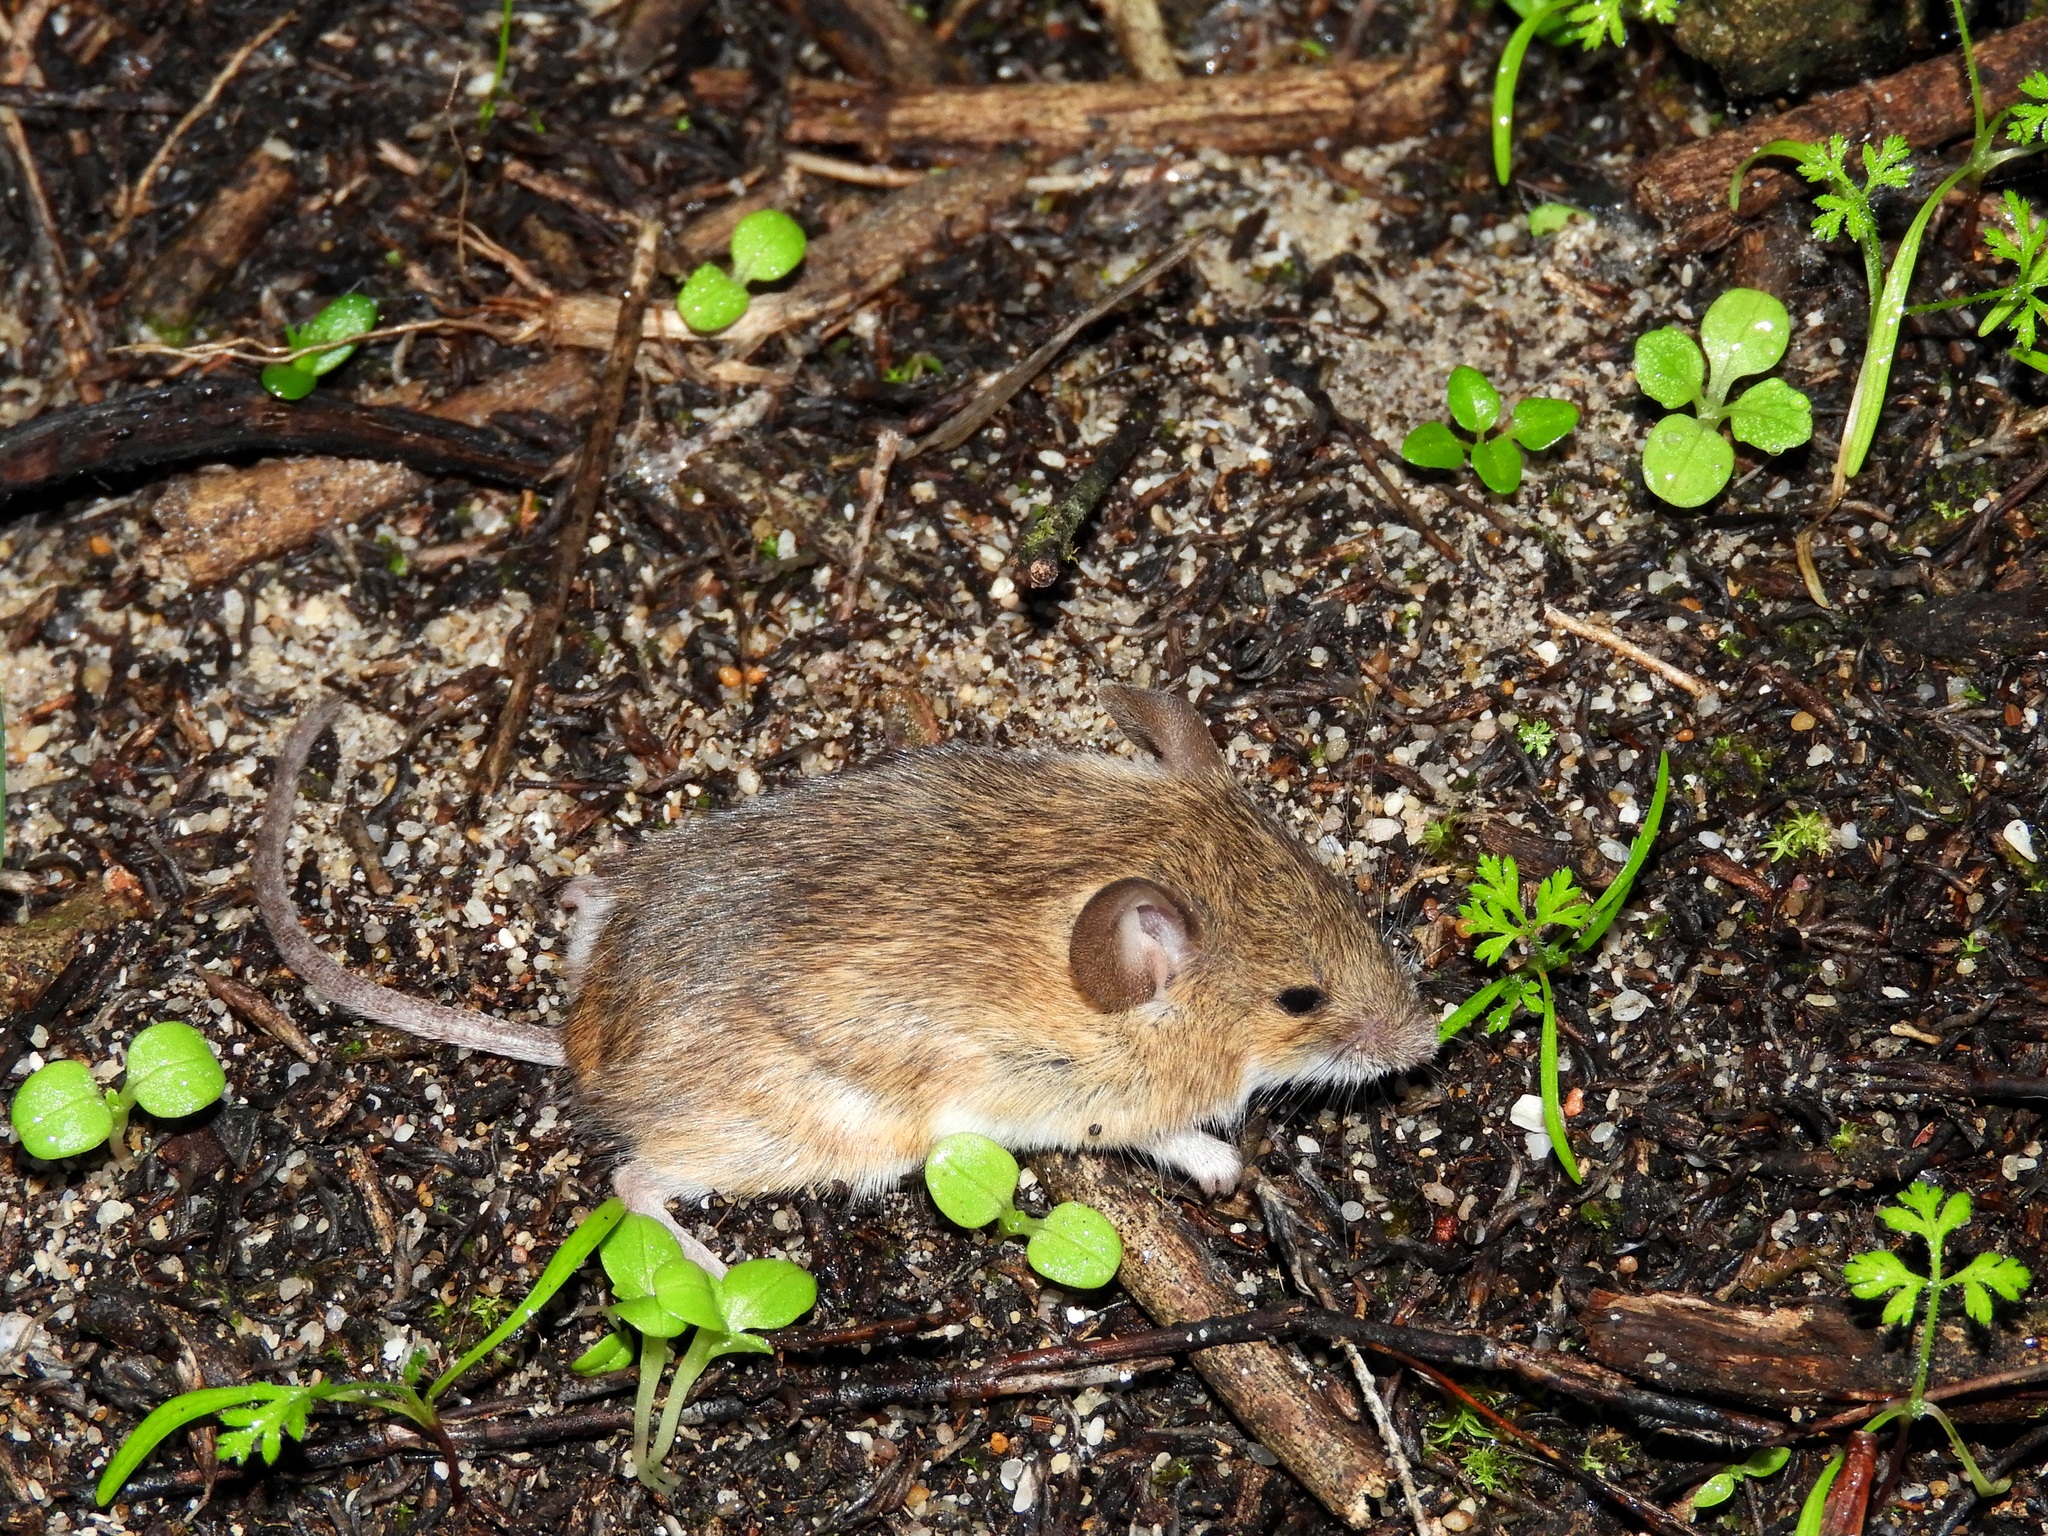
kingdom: Animalia
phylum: Chordata
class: Mammalia
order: Rodentia
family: Muridae
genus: Mus
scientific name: Mus minutoides
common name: Southern african pygmy mouse
